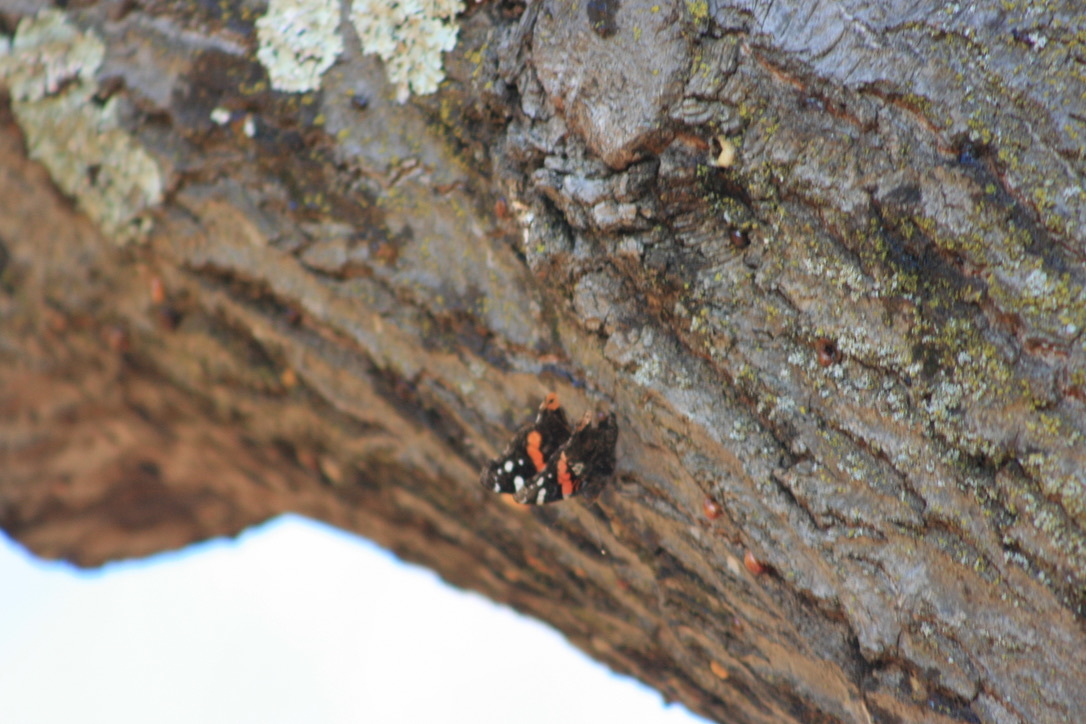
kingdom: Animalia
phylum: Arthropoda
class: Insecta
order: Lepidoptera
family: Nymphalidae
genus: Vanessa
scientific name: Vanessa atalanta
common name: Red admiral
